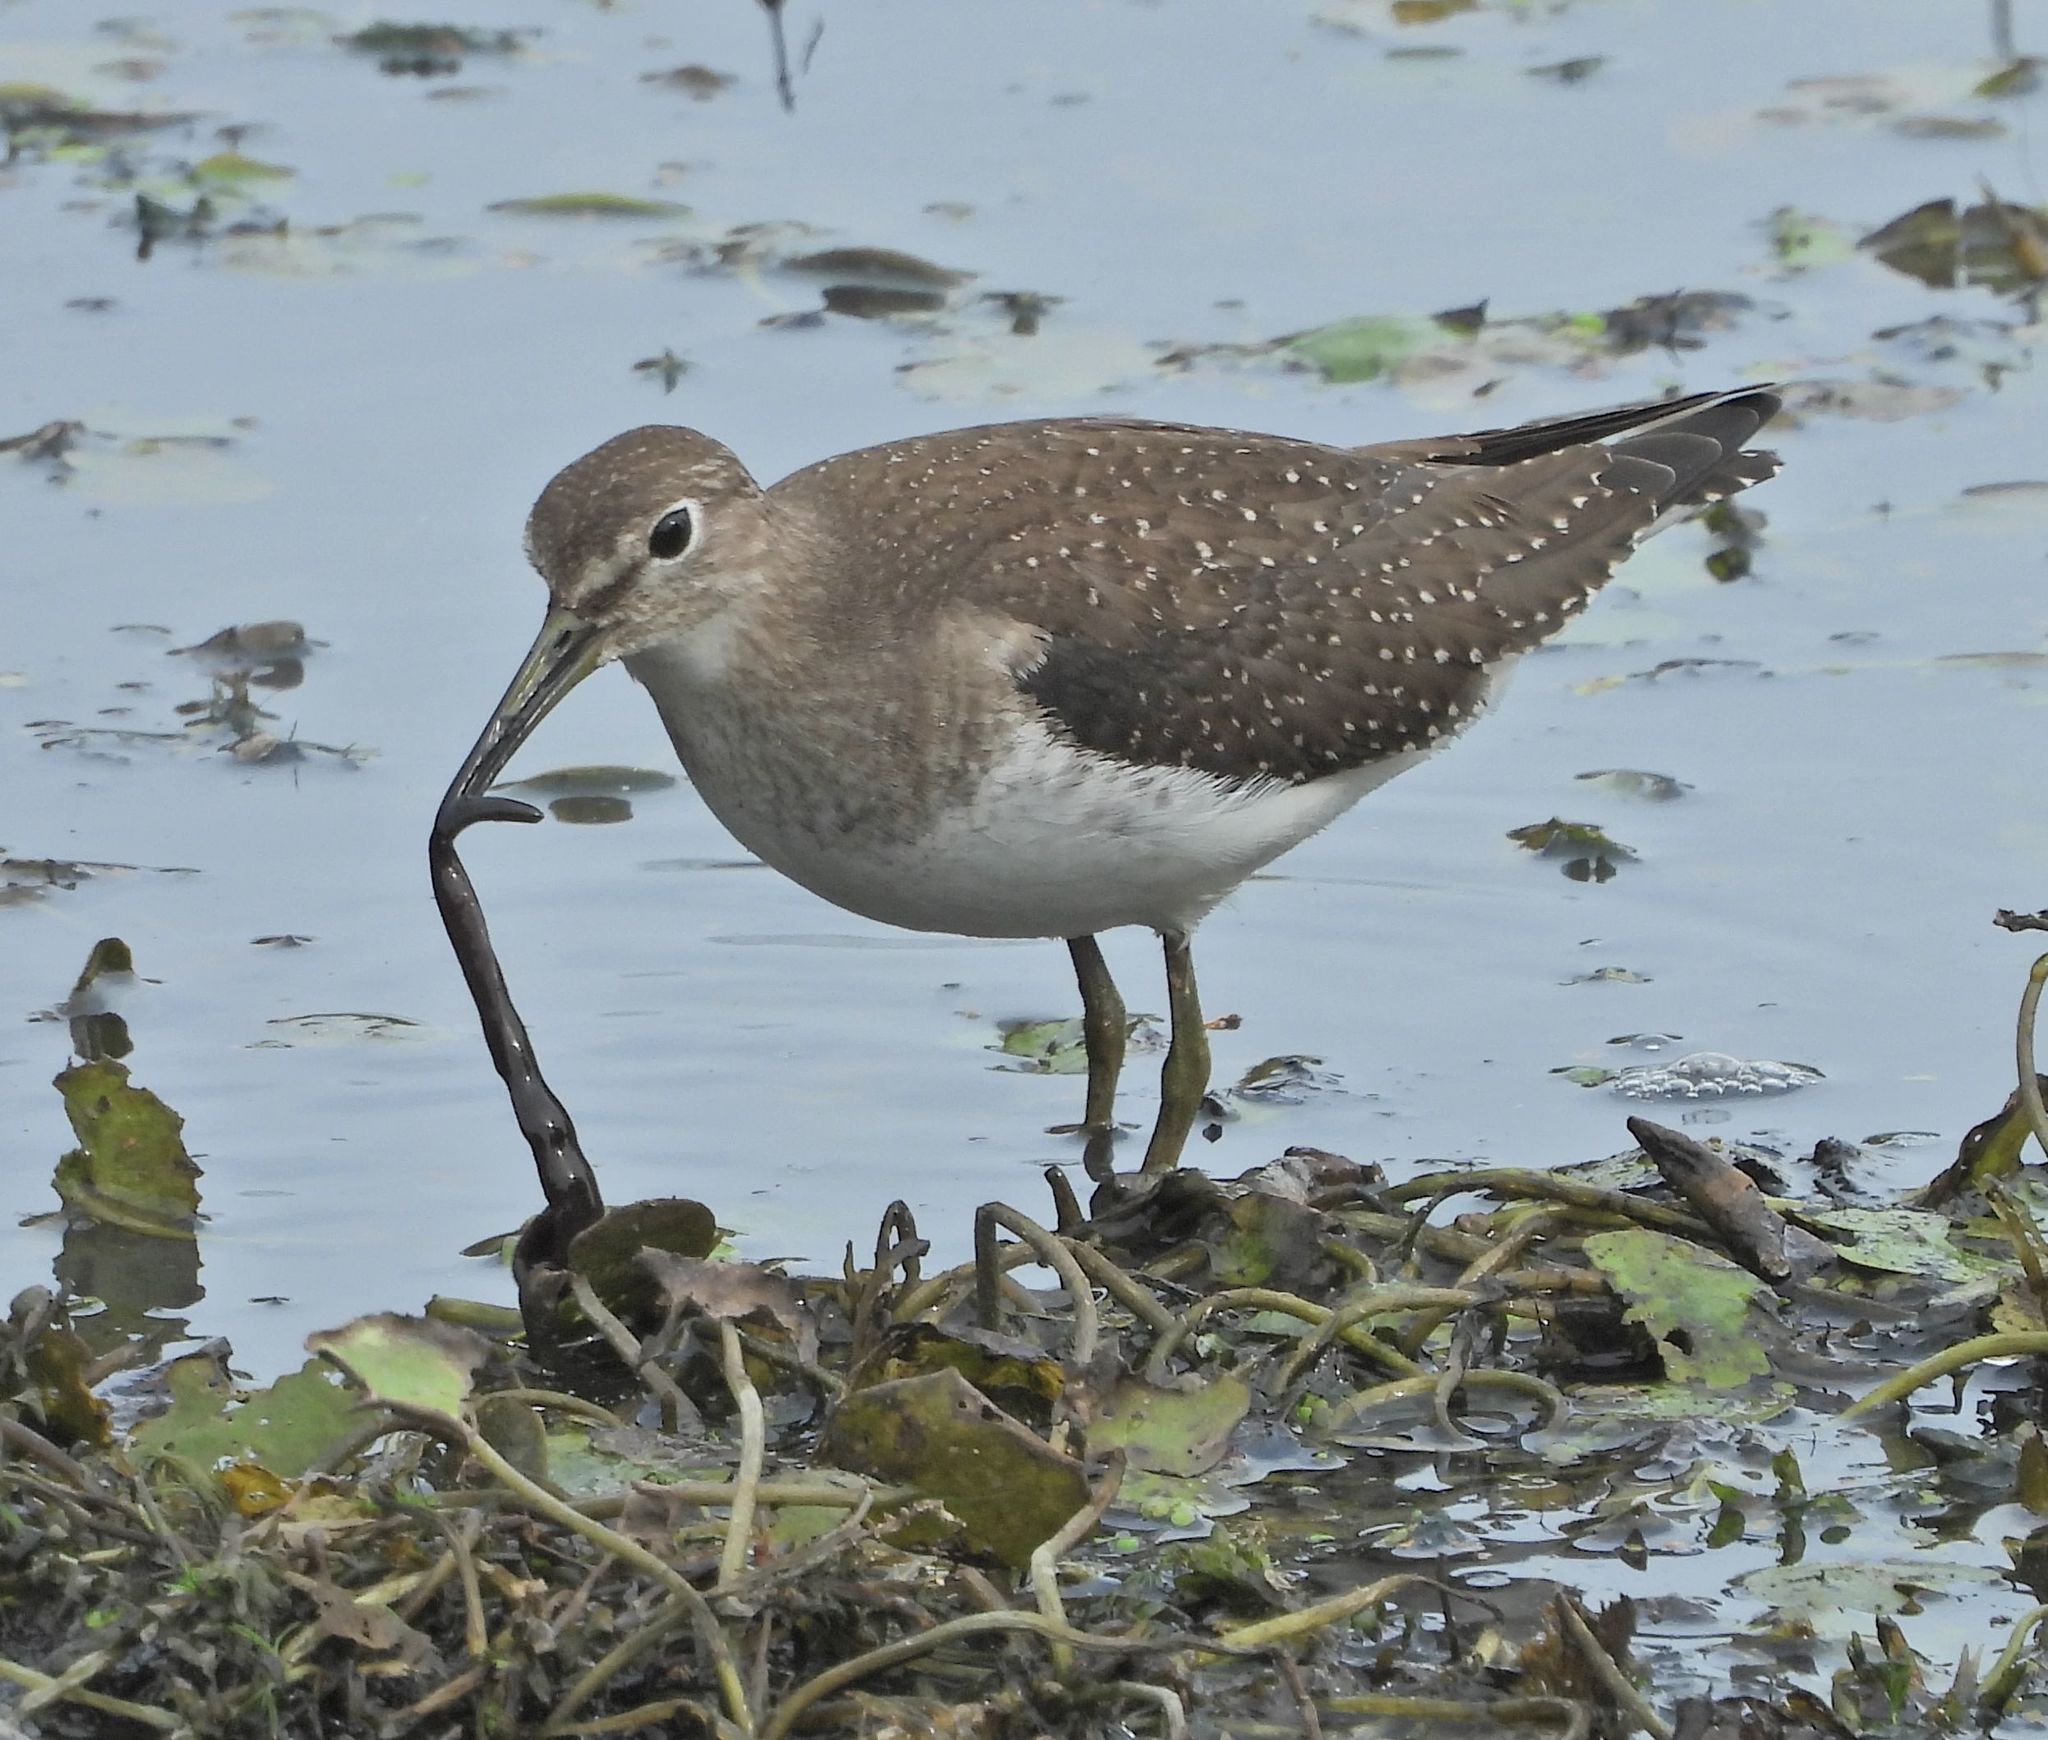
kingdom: Animalia
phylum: Chordata
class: Aves
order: Charadriiformes
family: Scolopacidae
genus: Tringa
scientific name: Tringa solitaria
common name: Solitary sandpiper
